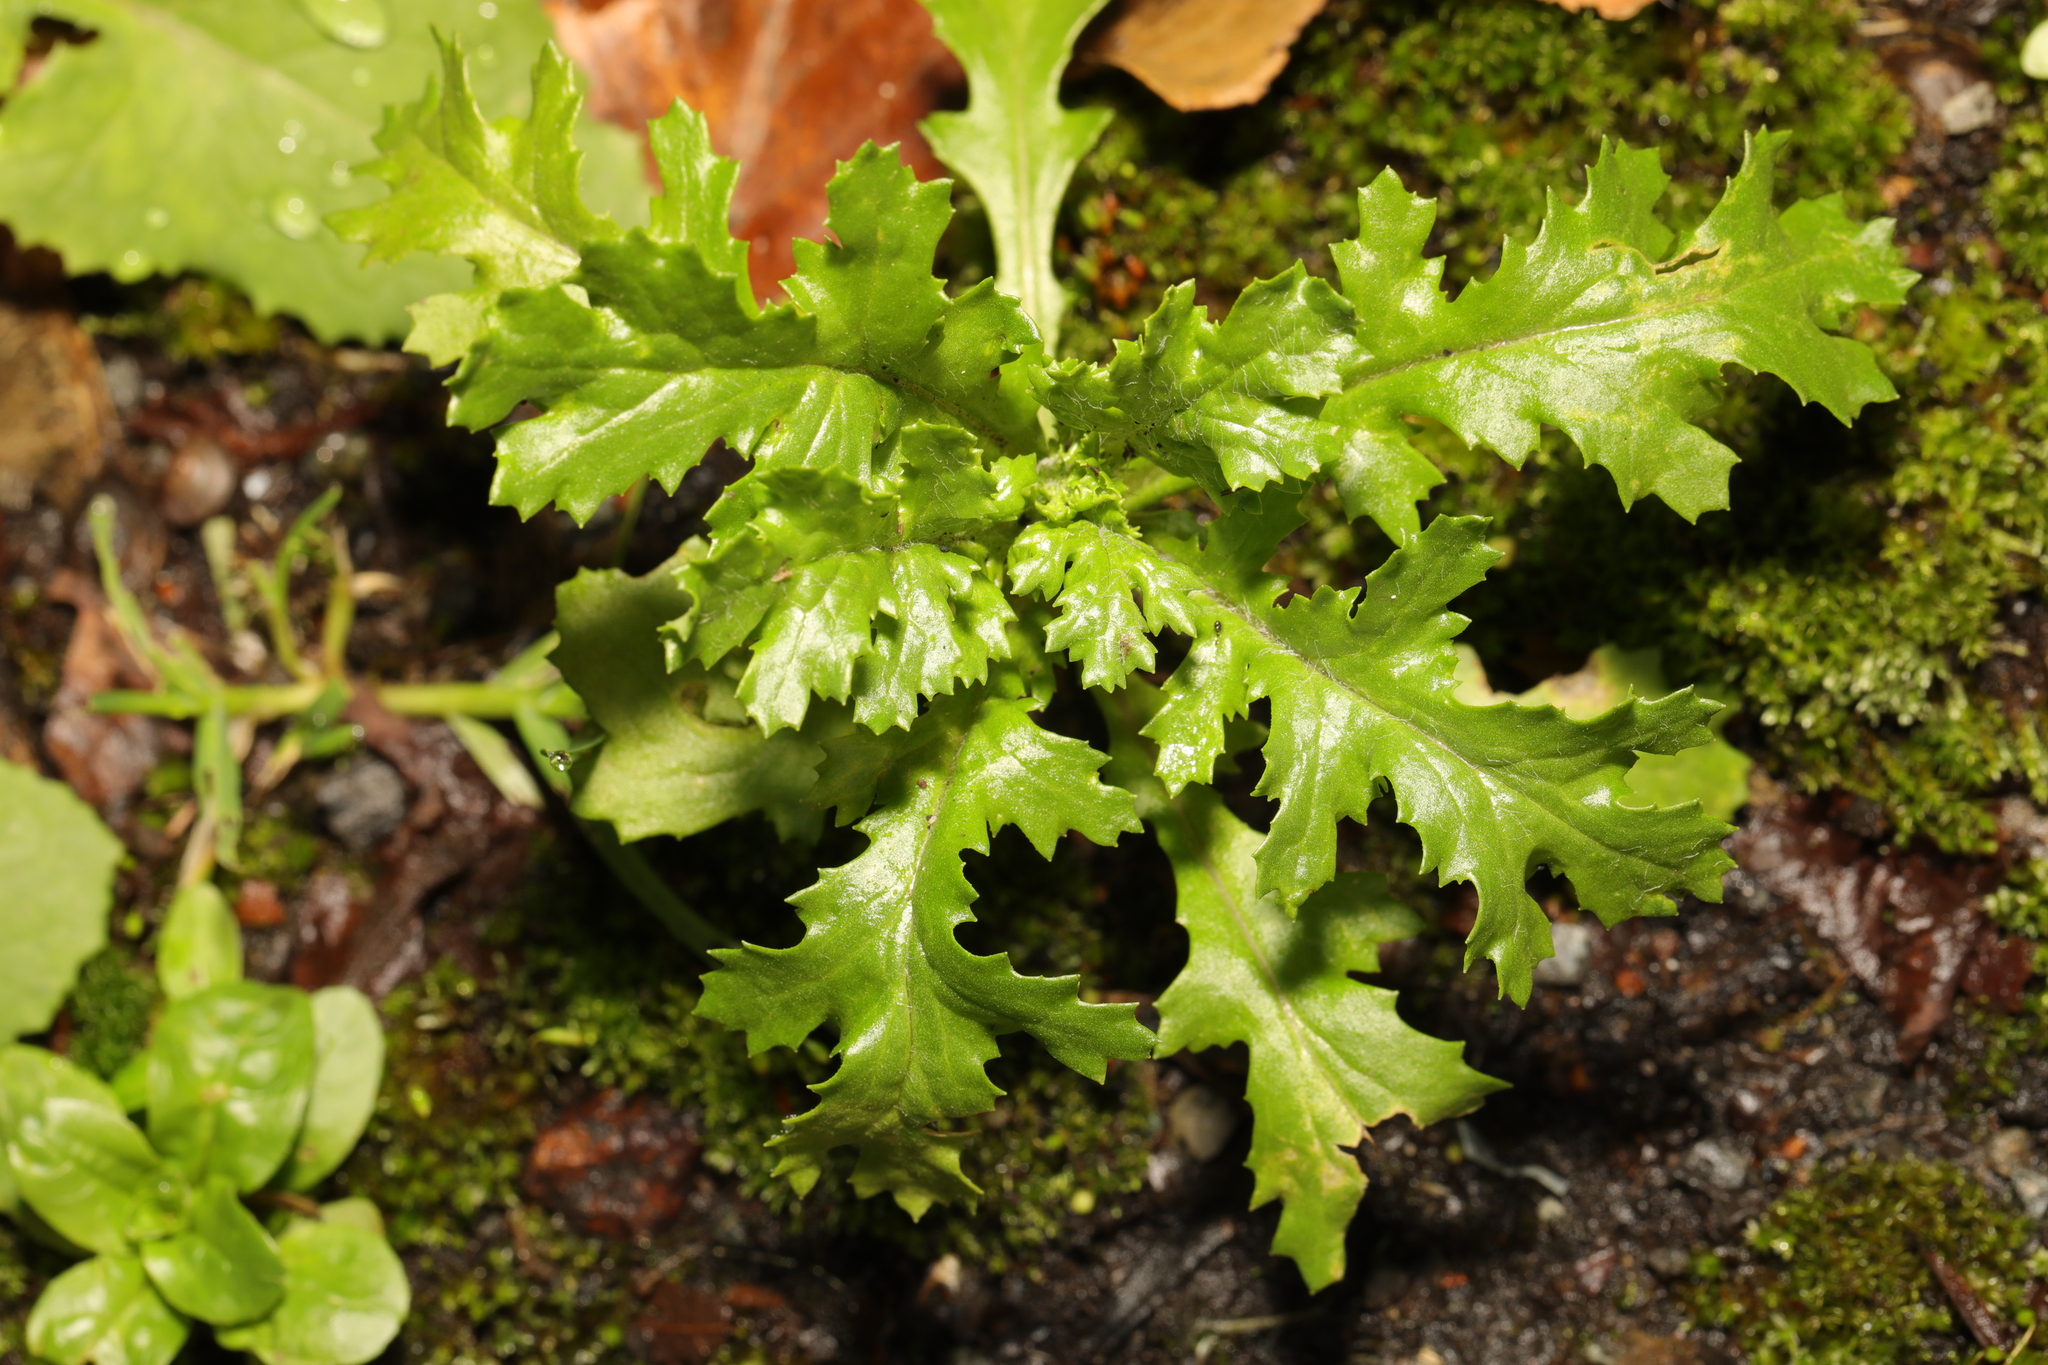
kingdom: Plantae
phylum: Tracheophyta
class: Magnoliopsida
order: Asterales
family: Asteraceae
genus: Senecio
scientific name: Senecio vulgaris
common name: Old-man-in-the-spring
